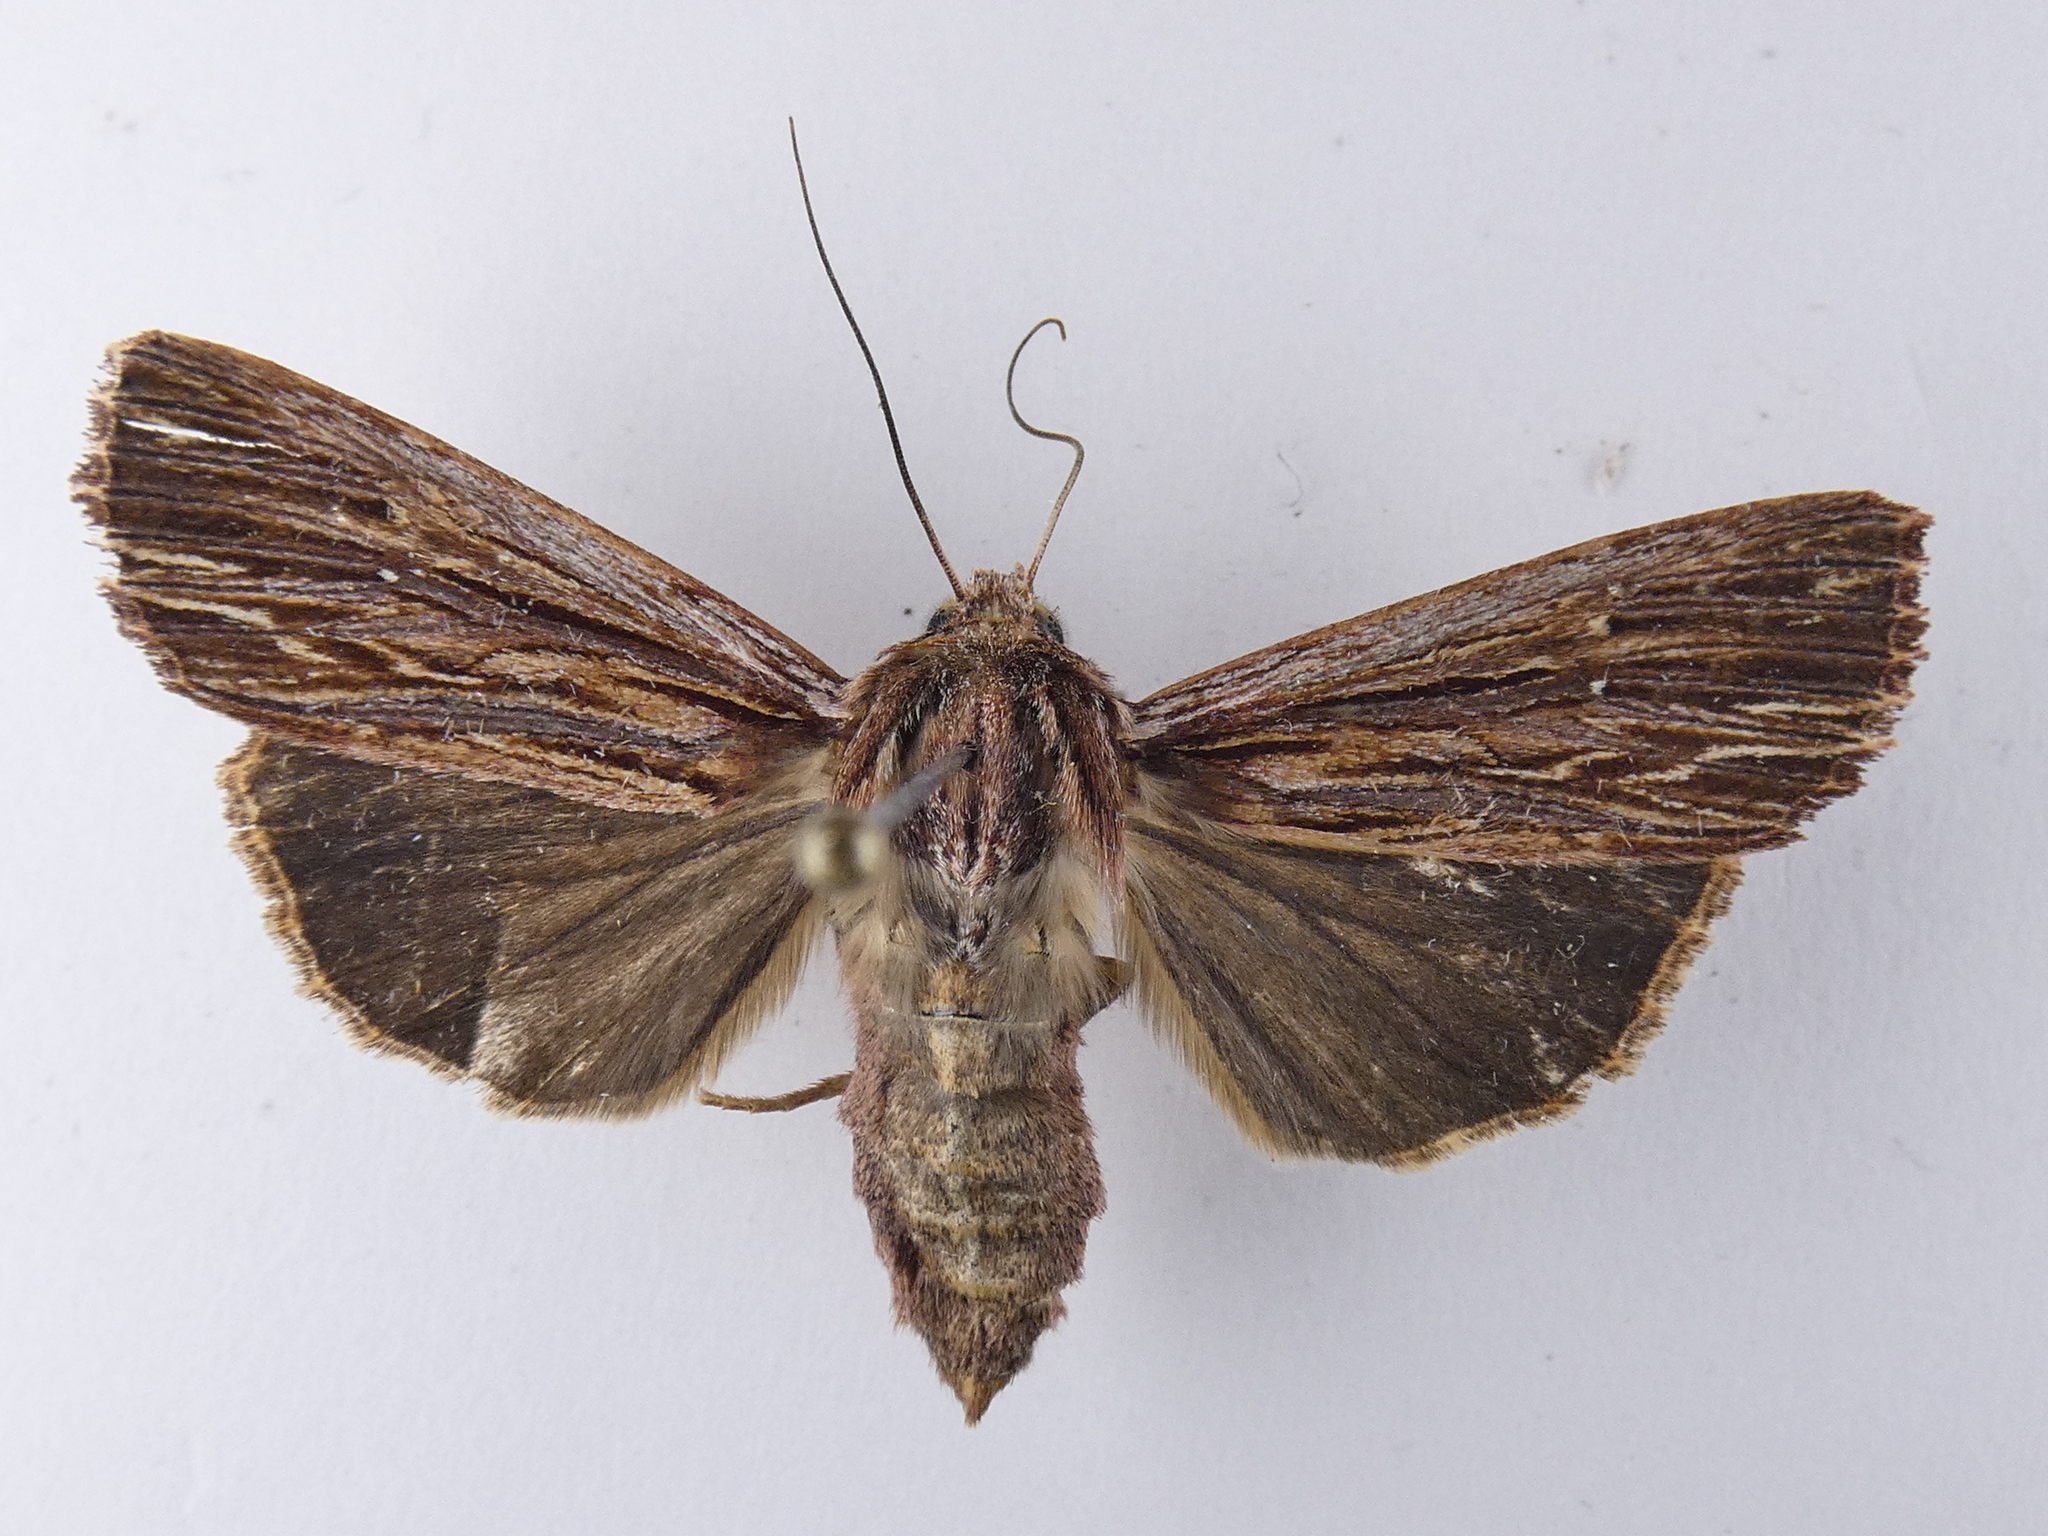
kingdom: Animalia
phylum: Arthropoda
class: Insecta
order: Lepidoptera
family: Noctuidae
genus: Ichneutica
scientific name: Ichneutica
